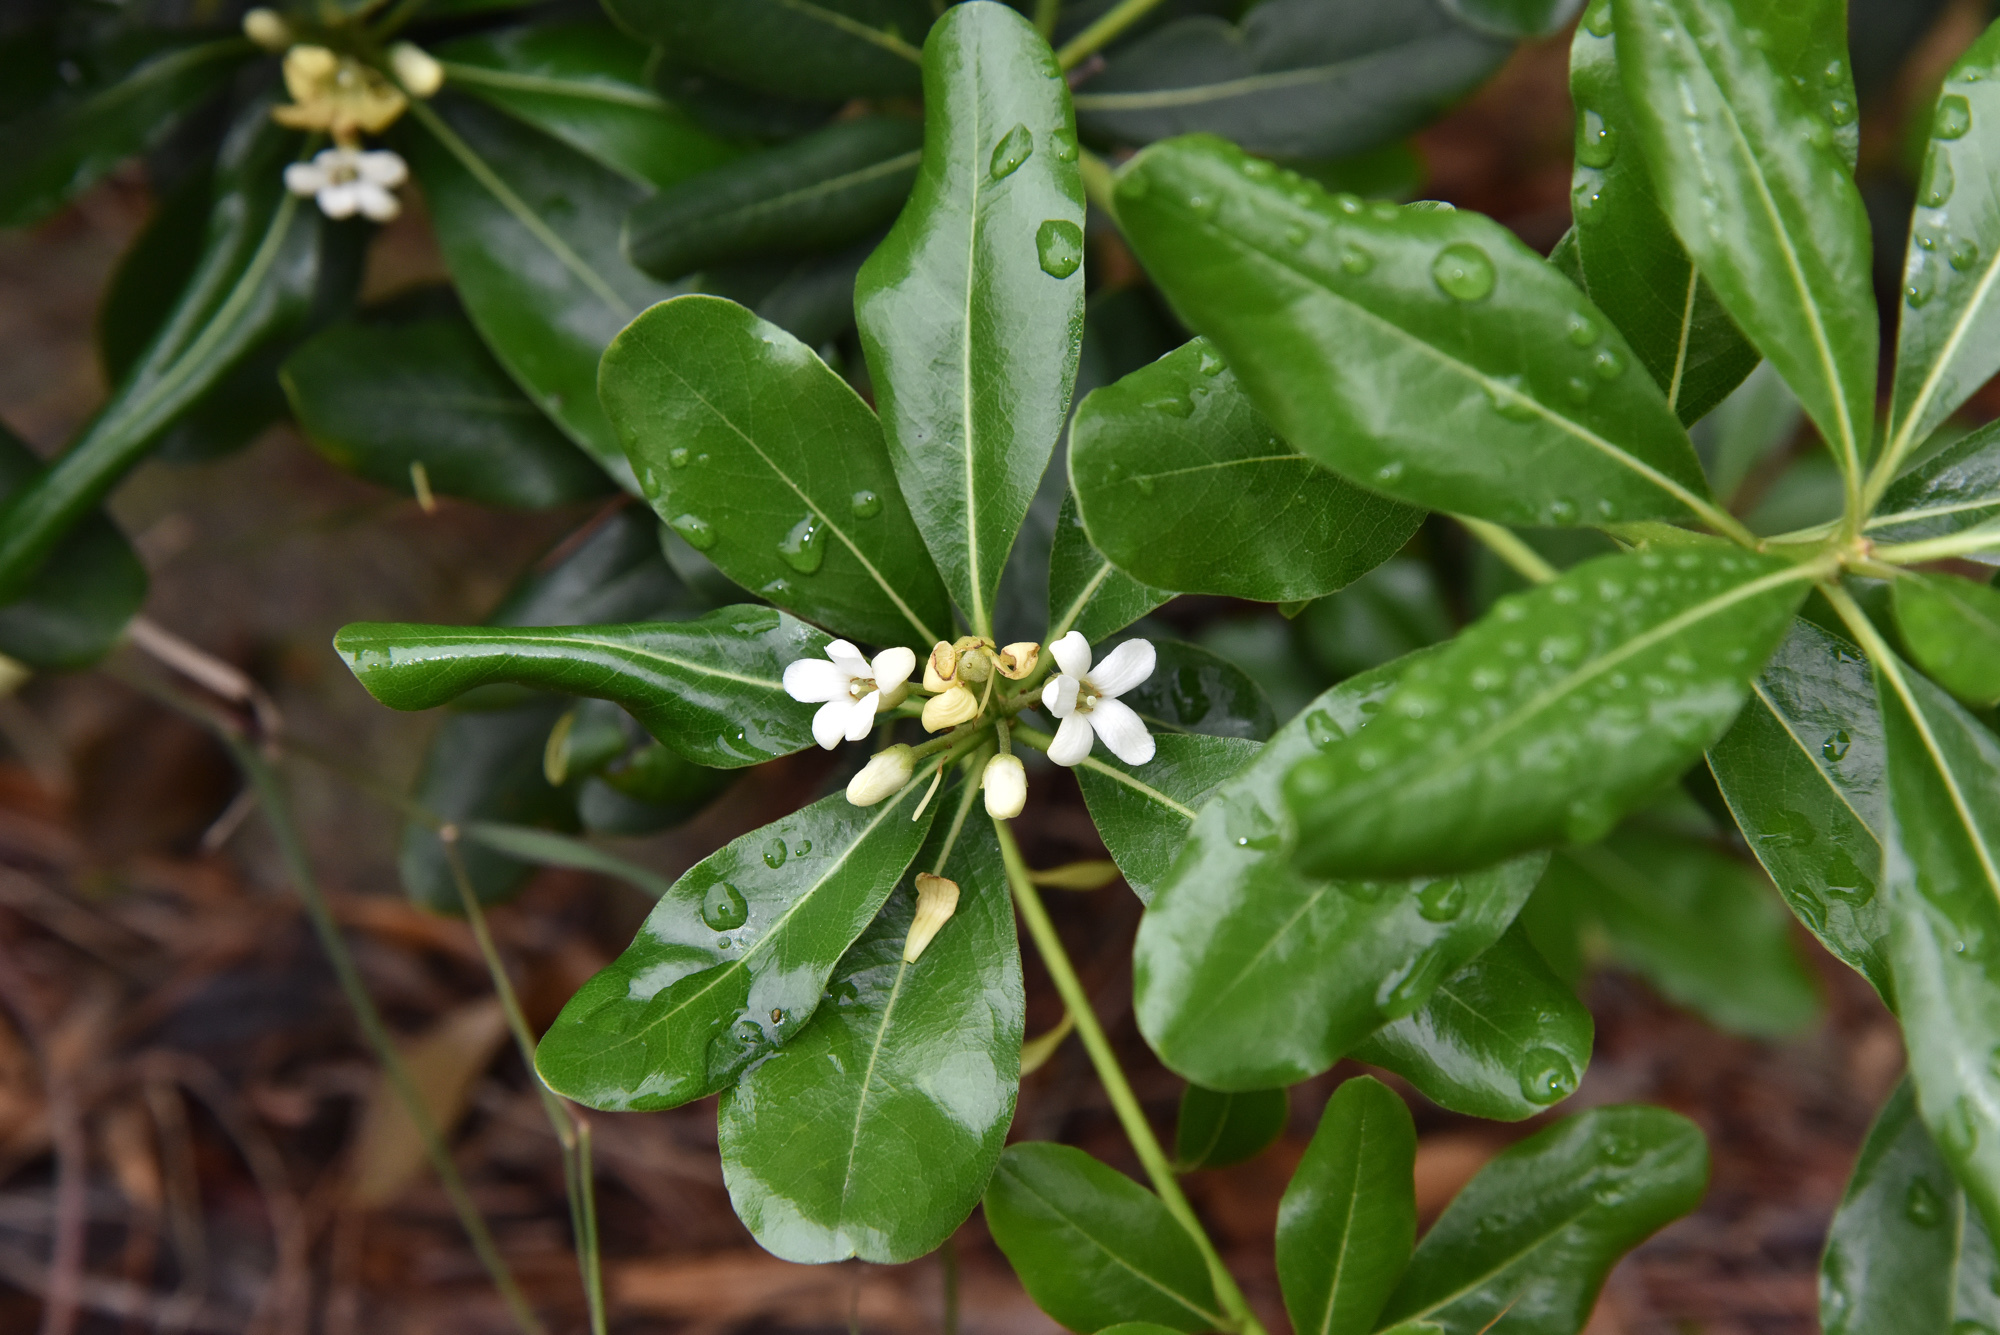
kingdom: Plantae
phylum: Tracheophyta
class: Magnoliopsida
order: Apiales
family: Pittosporaceae
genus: Pittosporum
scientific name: Pittosporum tobira
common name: Japanese cheesewood
